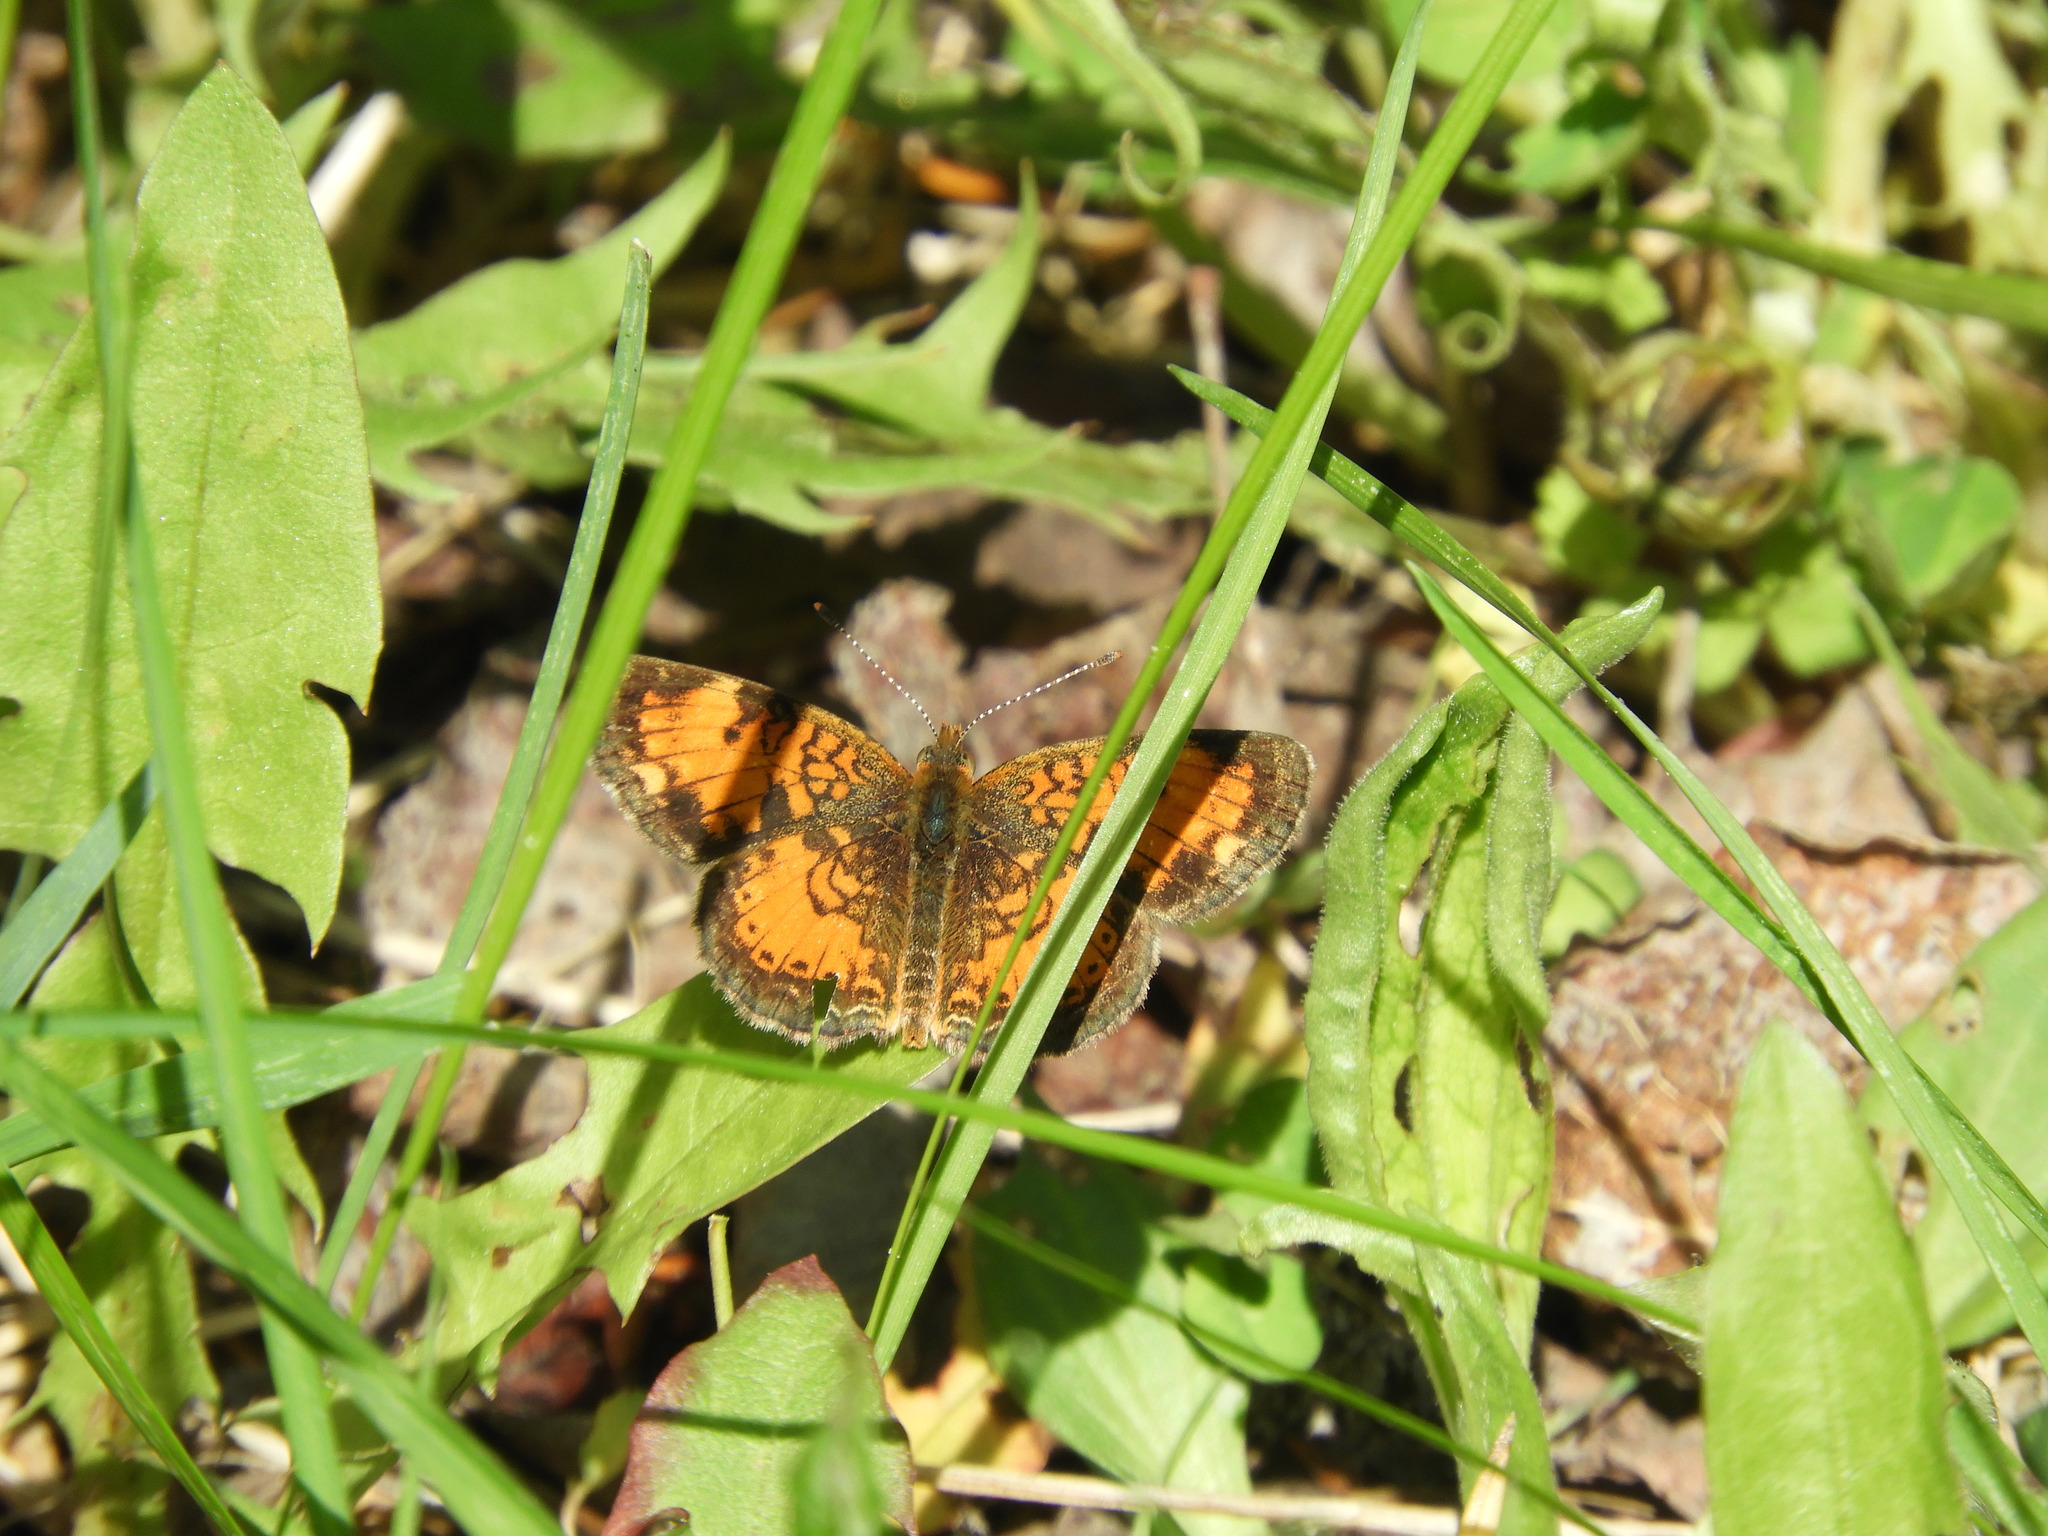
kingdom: Animalia
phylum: Arthropoda
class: Insecta
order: Lepidoptera
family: Nymphalidae
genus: Phyciodes
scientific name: Phyciodes tharos
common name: Pearl crescent
